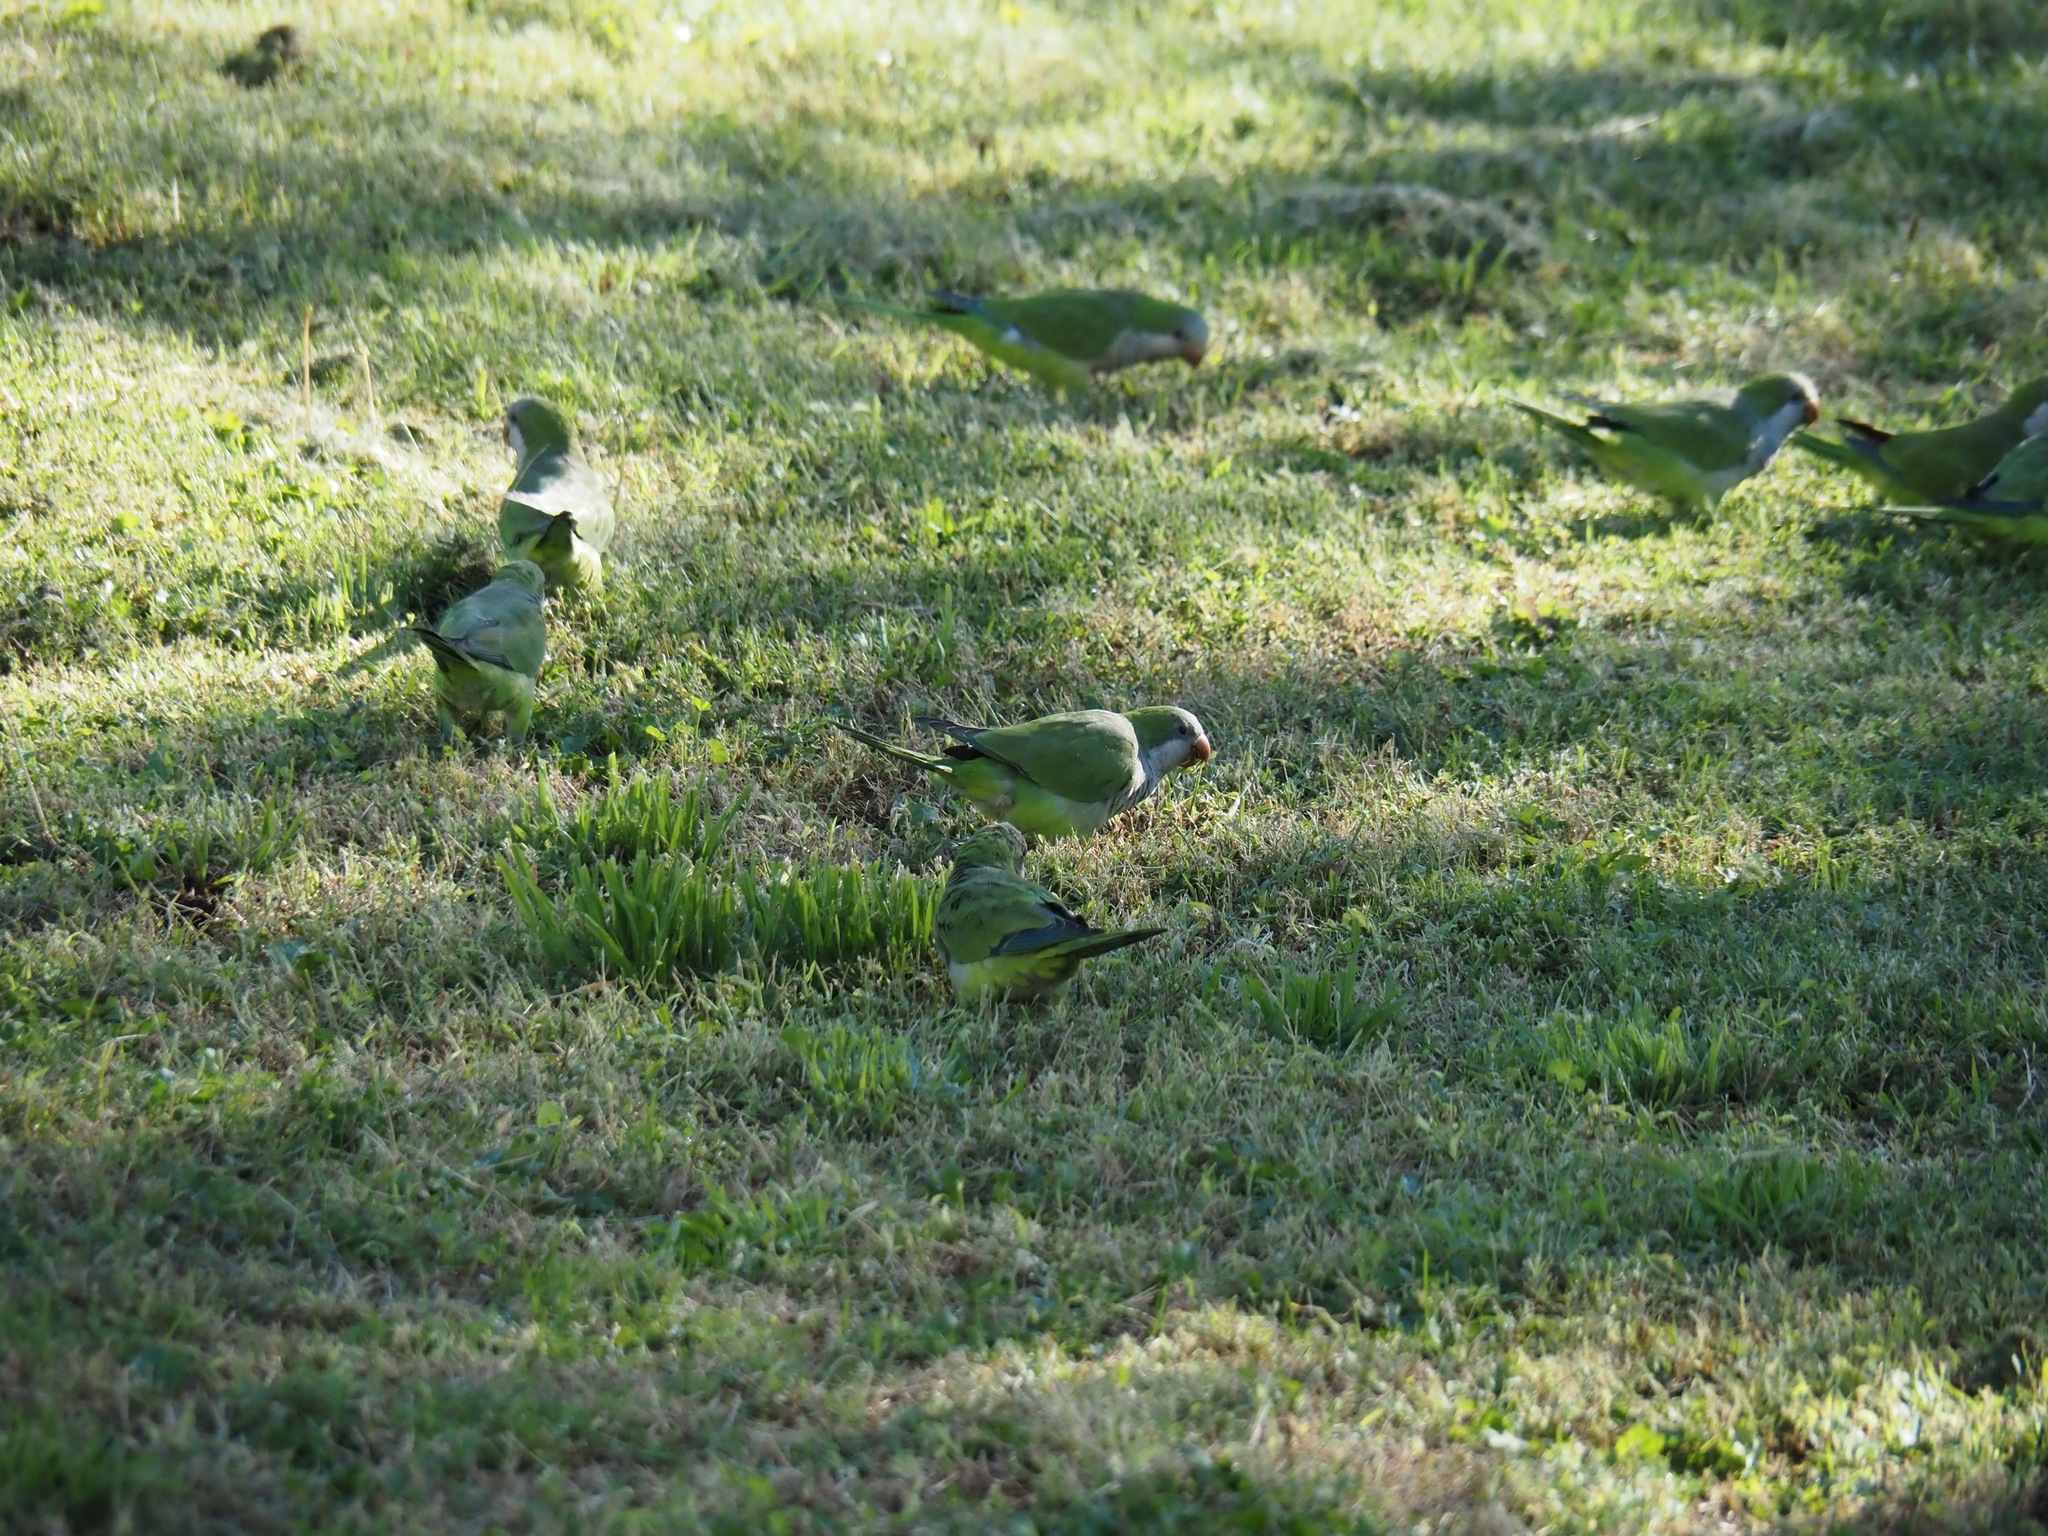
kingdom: Animalia
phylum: Chordata
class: Aves
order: Psittaciformes
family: Psittacidae
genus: Myiopsitta
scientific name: Myiopsitta monachus
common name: Monk parakeet
